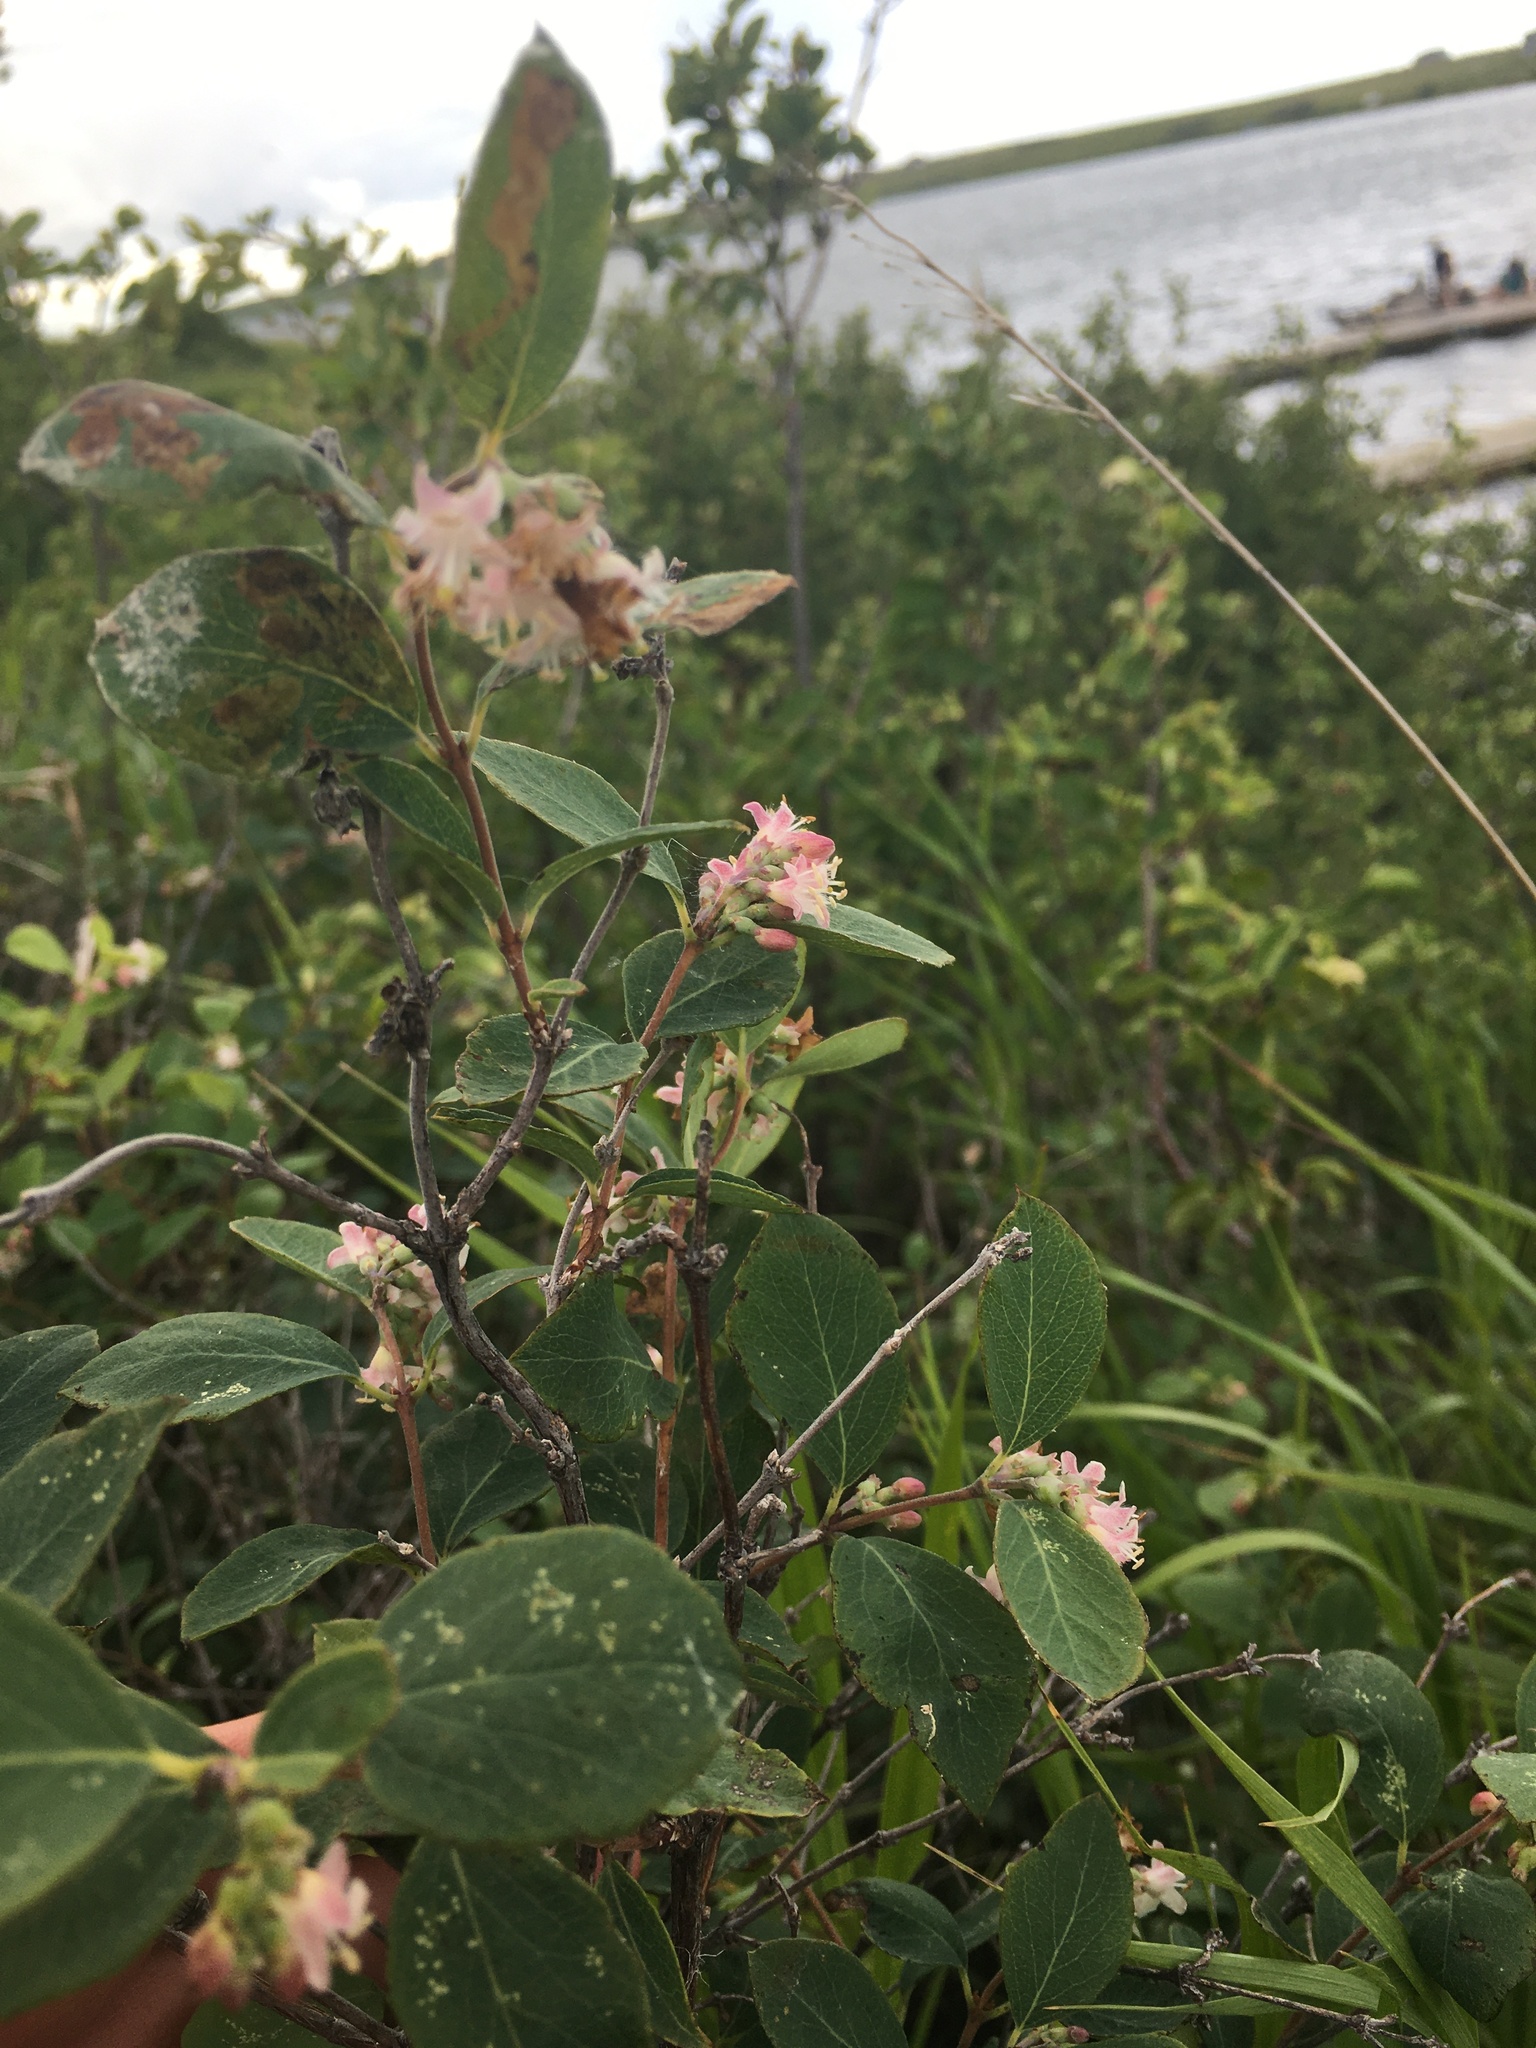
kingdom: Plantae
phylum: Tracheophyta
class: Magnoliopsida
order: Dipsacales
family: Caprifoliaceae
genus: Symphoricarpos
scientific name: Symphoricarpos occidentalis
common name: Wolfberry
